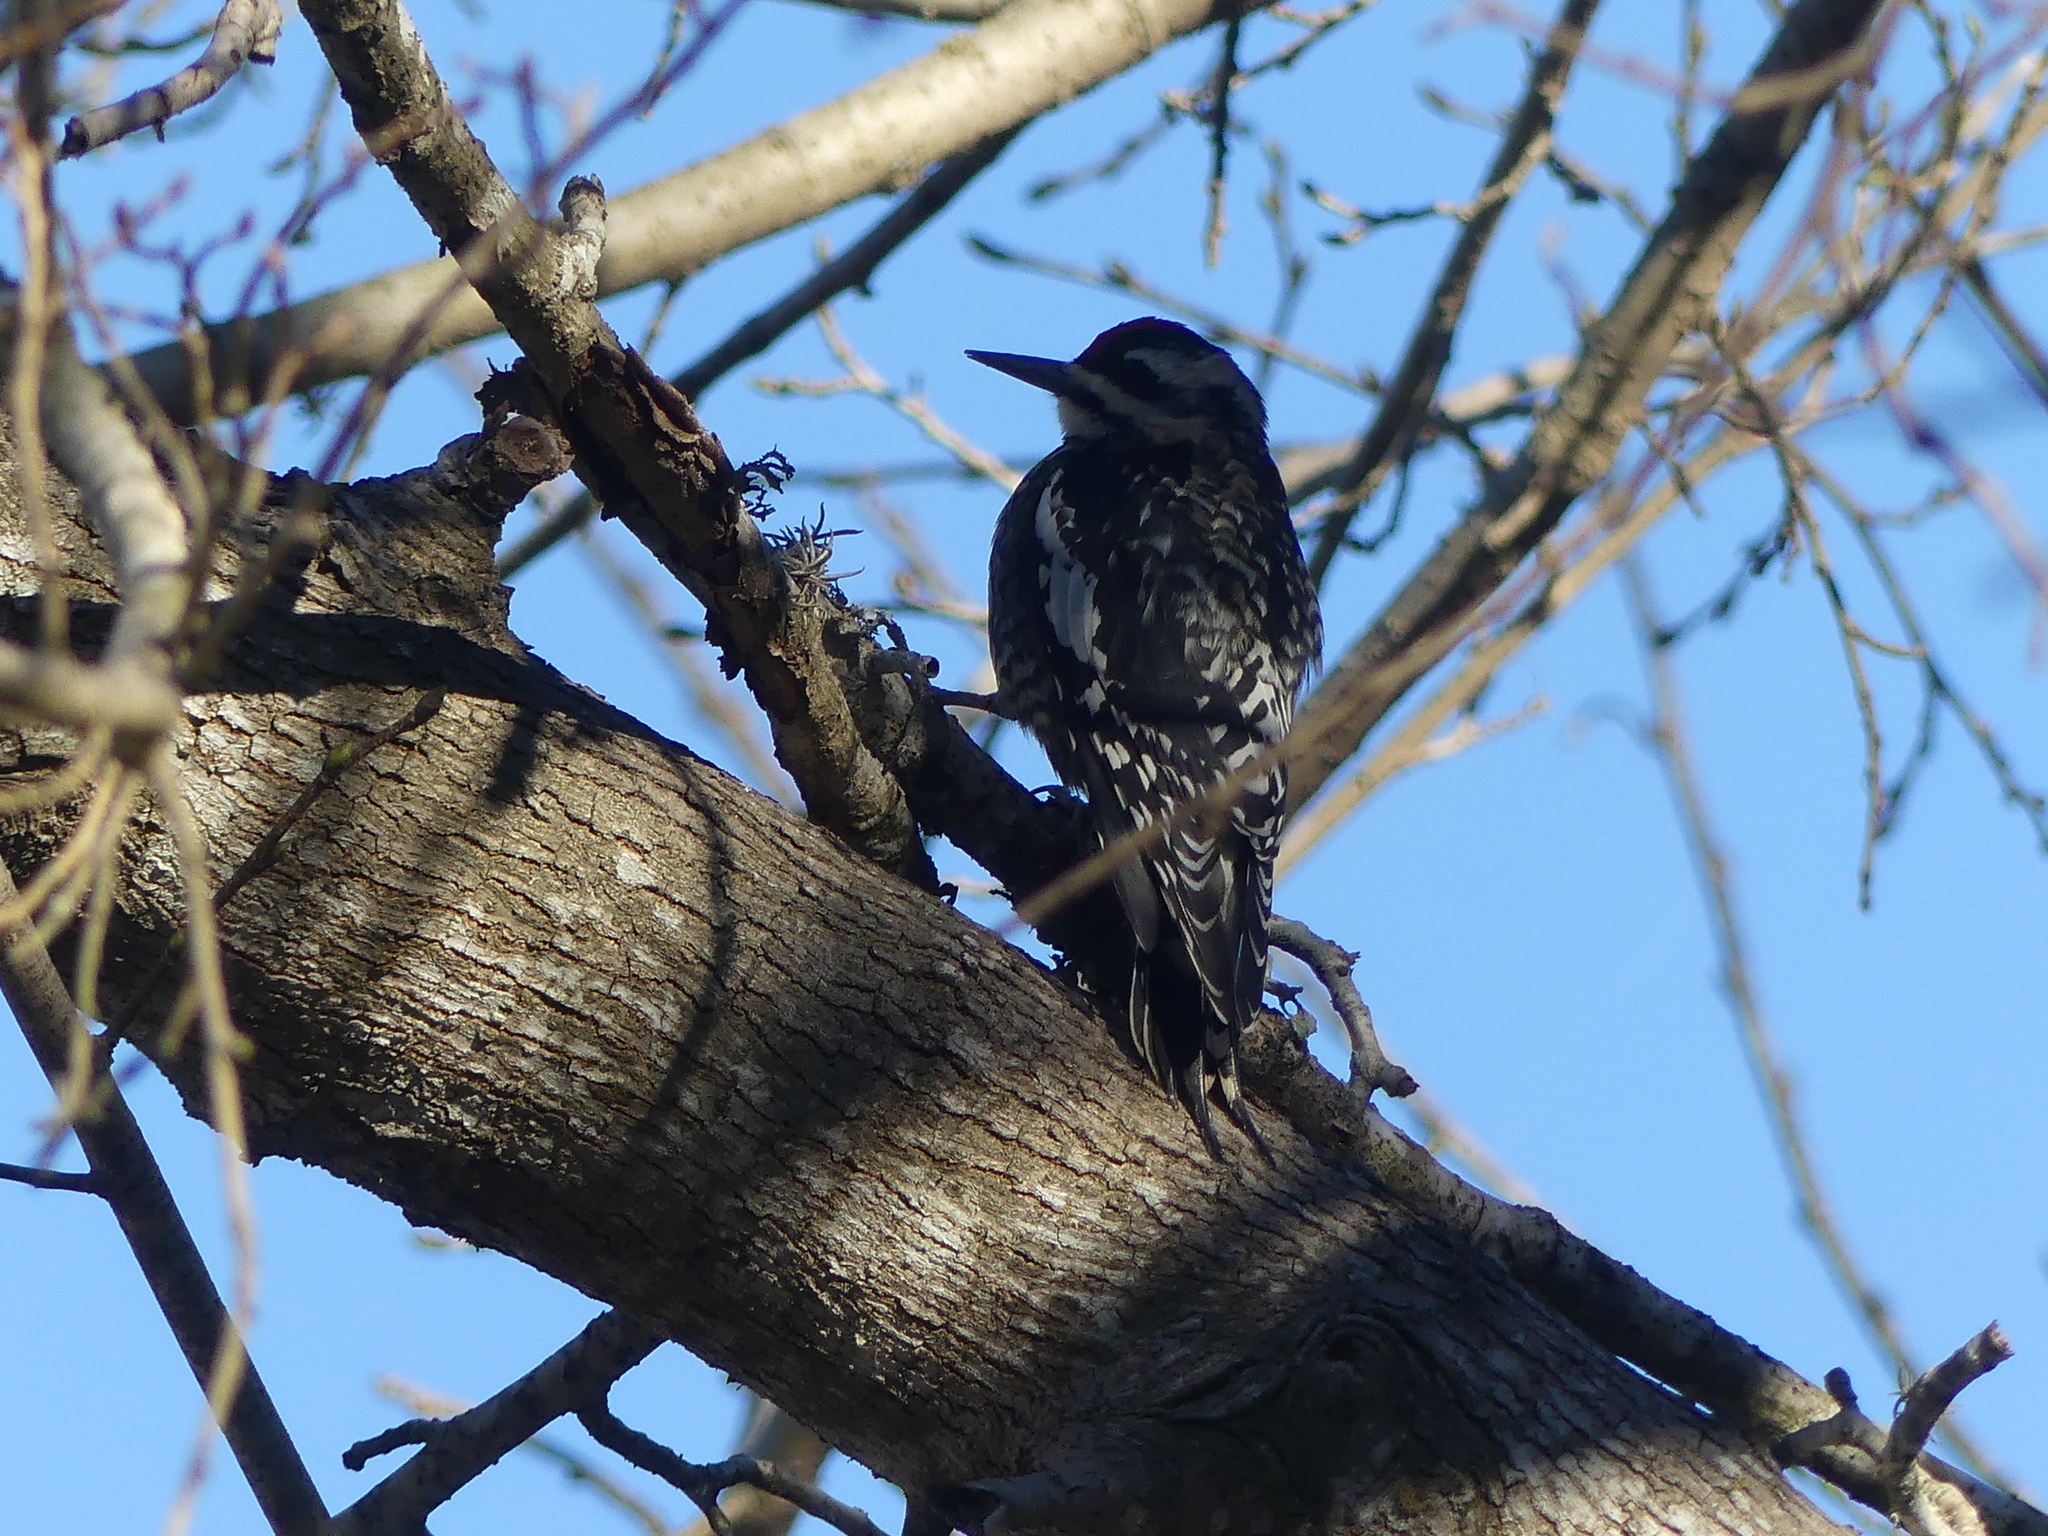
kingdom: Animalia
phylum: Chordata
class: Aves
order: Piciformes
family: Picidae
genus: Sphyrapicus
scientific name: Sphyrapicus varius
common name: Yellow-bellied sapsucker
